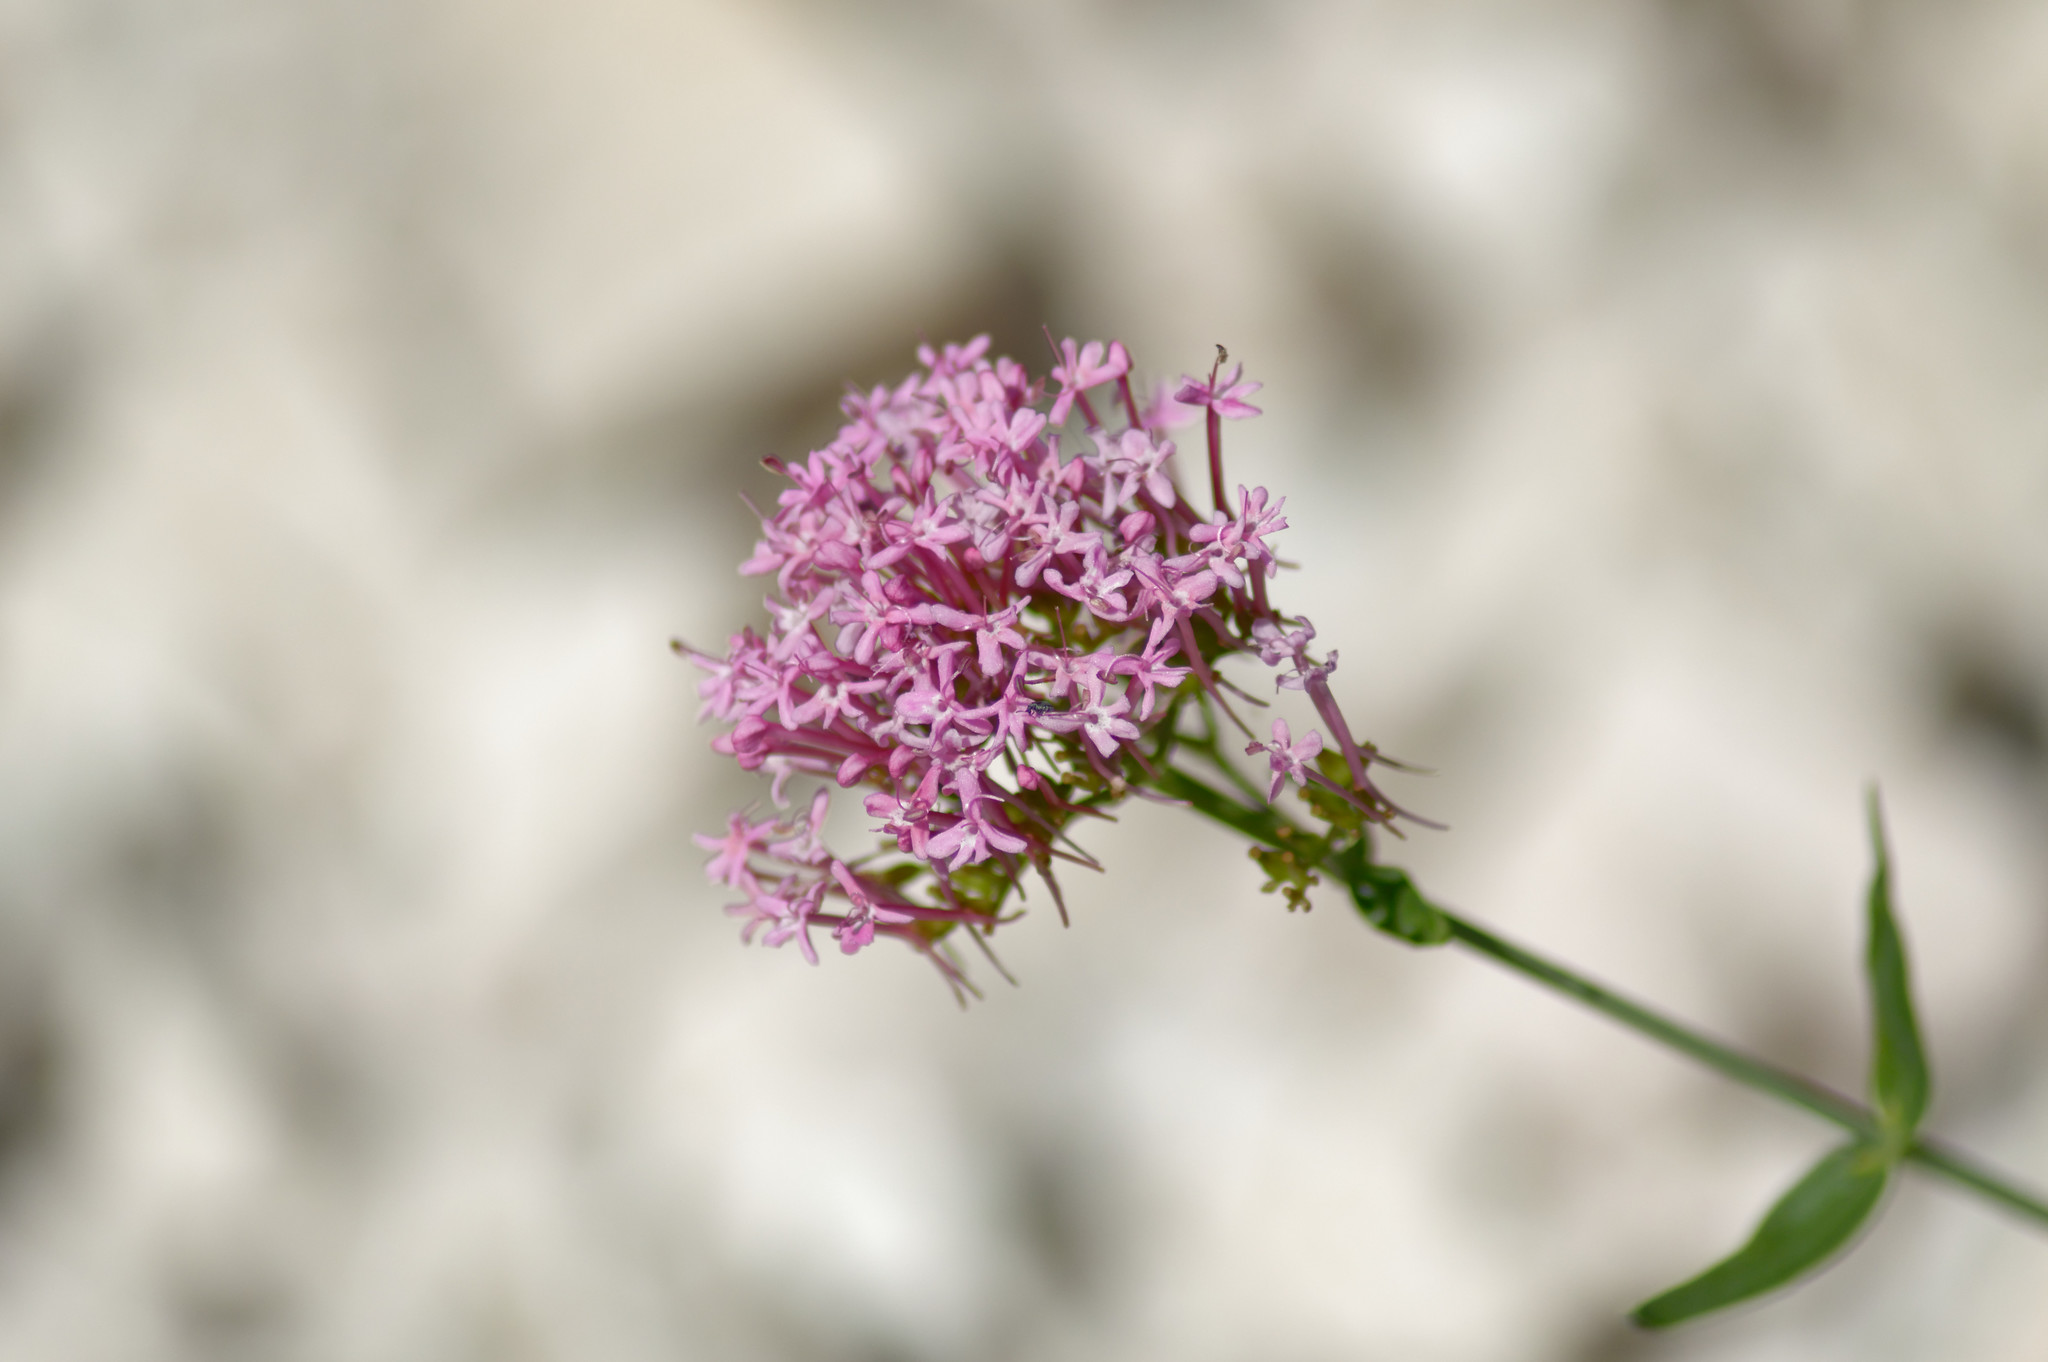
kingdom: Plantae
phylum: Tracheophyta
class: Magnoliopsida
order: Dipsacales
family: Caprifoliaceae
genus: Centranthus
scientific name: Centranthus ruber
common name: Red valerian
